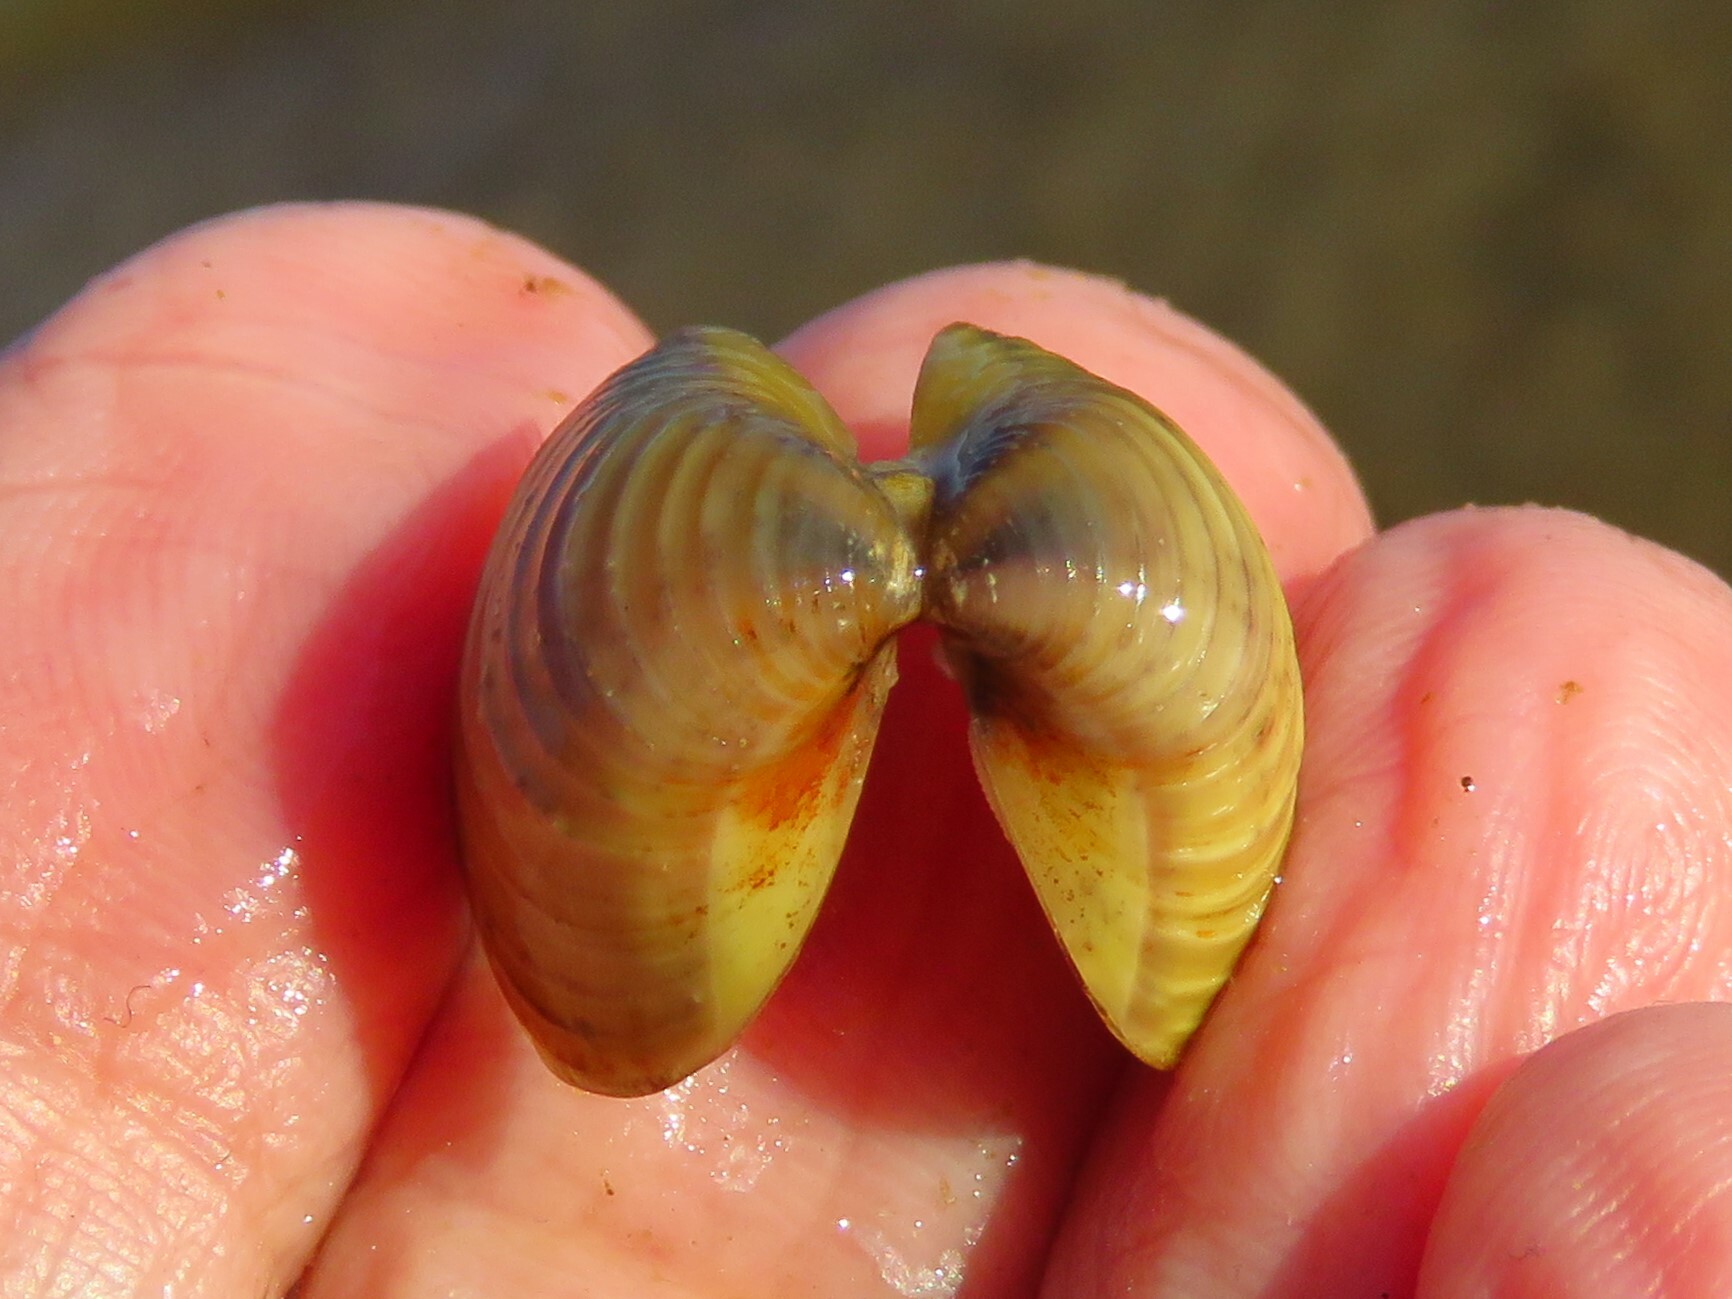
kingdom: Animalia
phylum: Mollusca
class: Bivalvia
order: Venerida
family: Cyrenidae
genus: Corbicula
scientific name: Corbicula fluminea
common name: Asian clam
